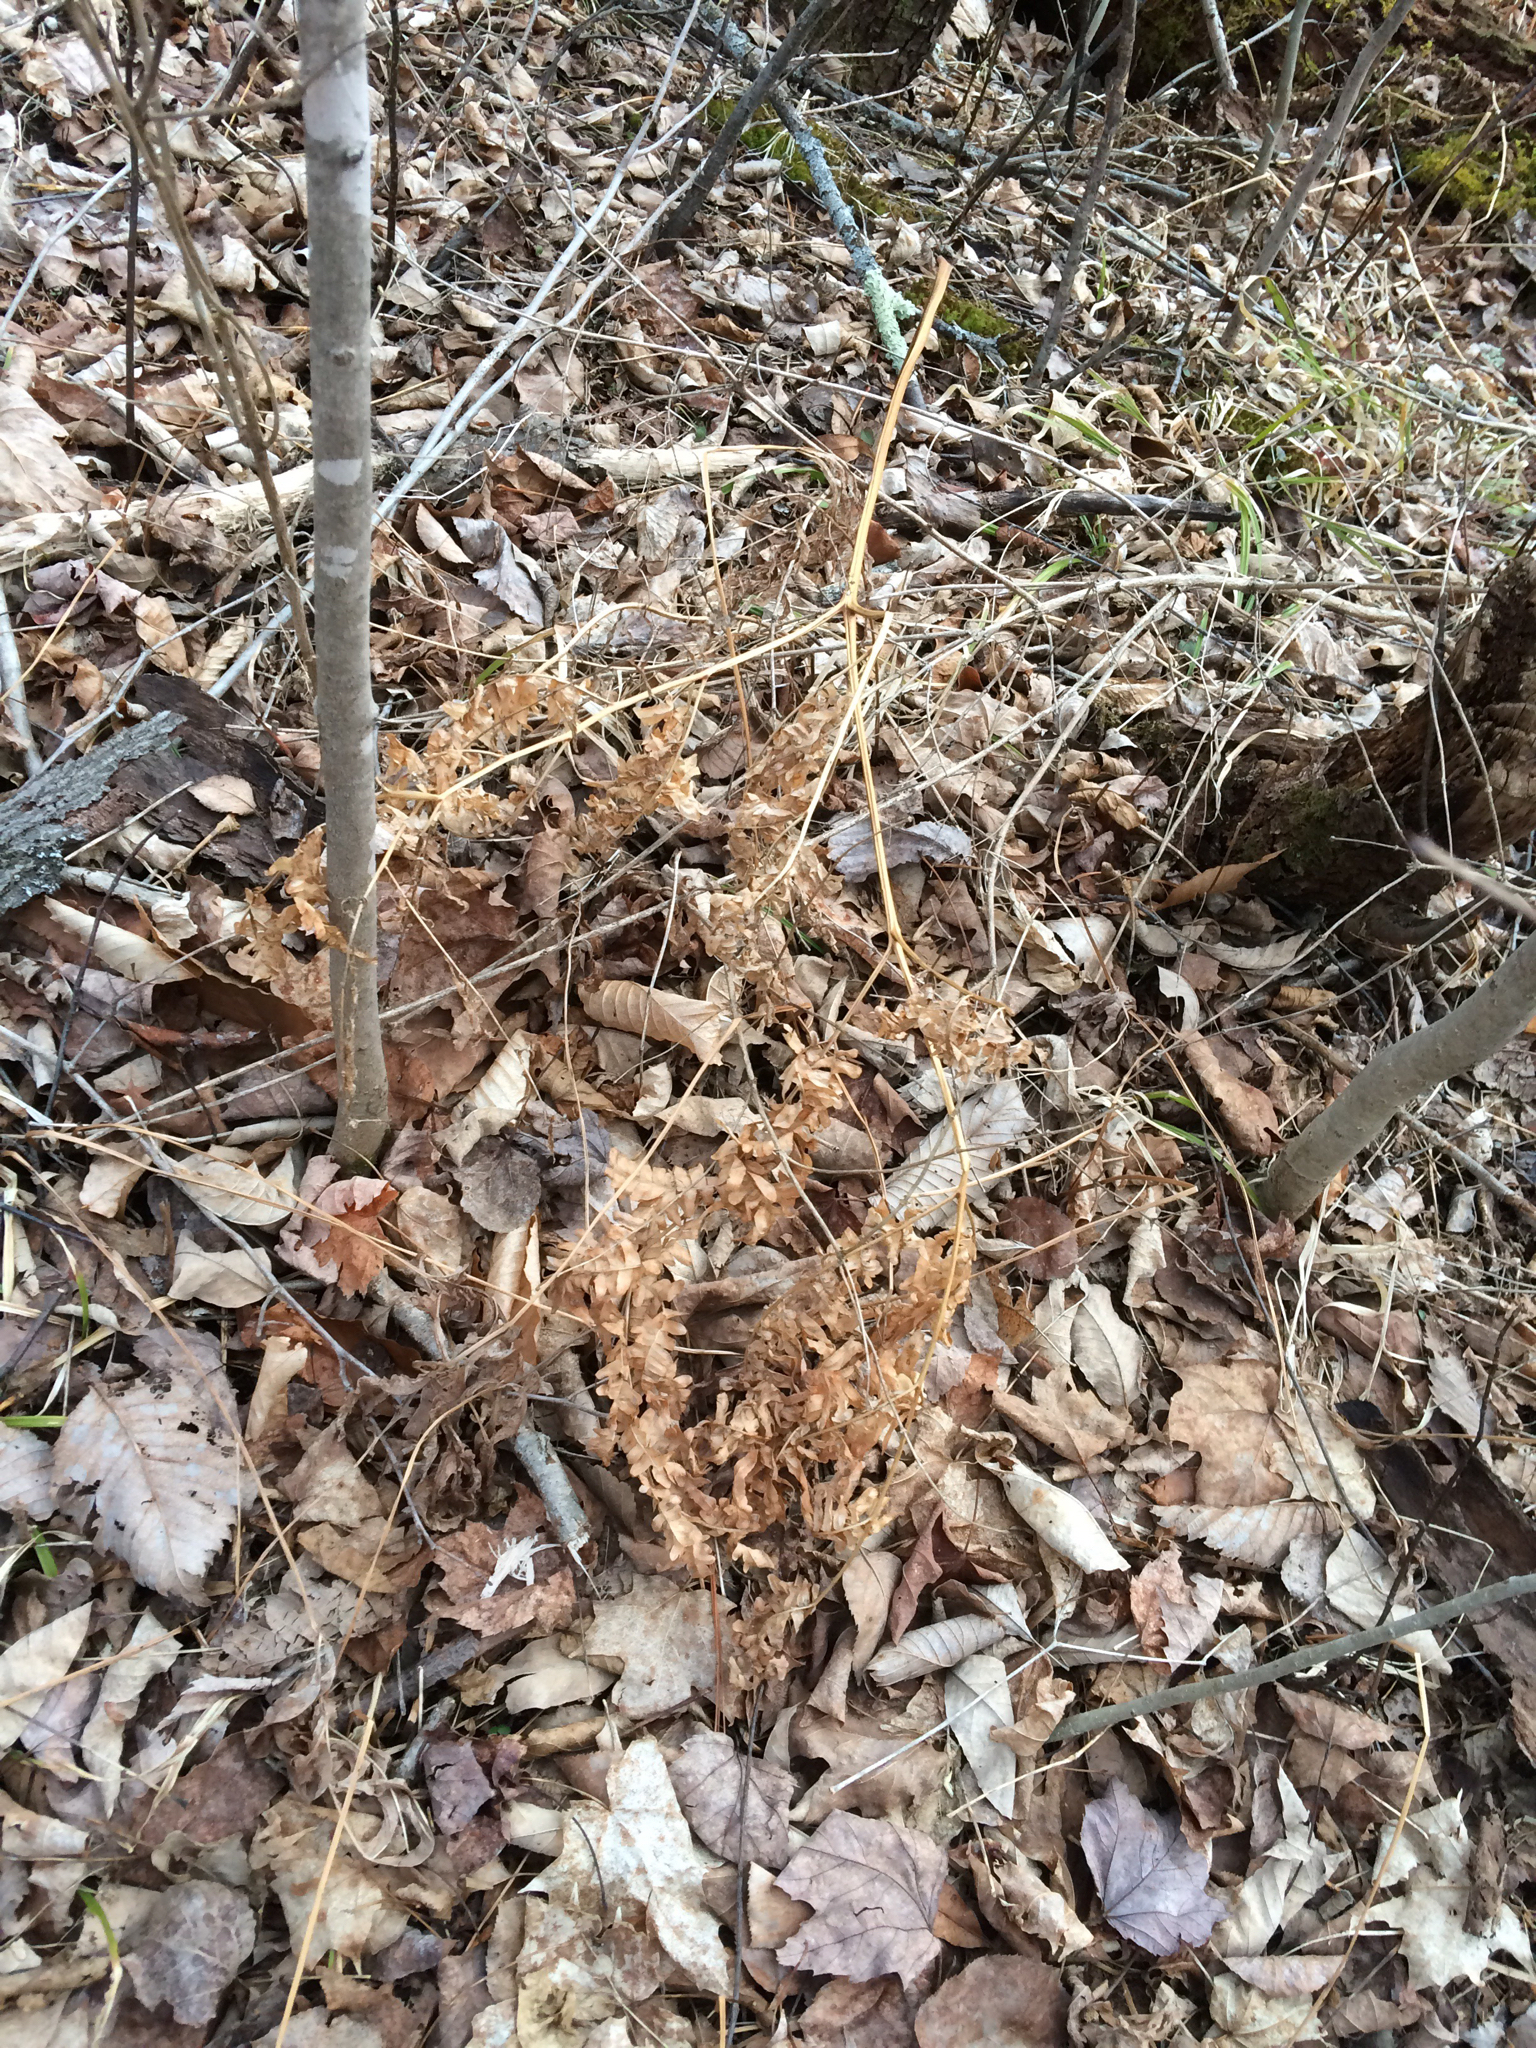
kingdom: Plantae
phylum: Tracheophyta
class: Polypodiopsida
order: Polypodiales
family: Dennstaedtiaceae
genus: Pteridium
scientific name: Pteridium aquilinum
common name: Bracken
